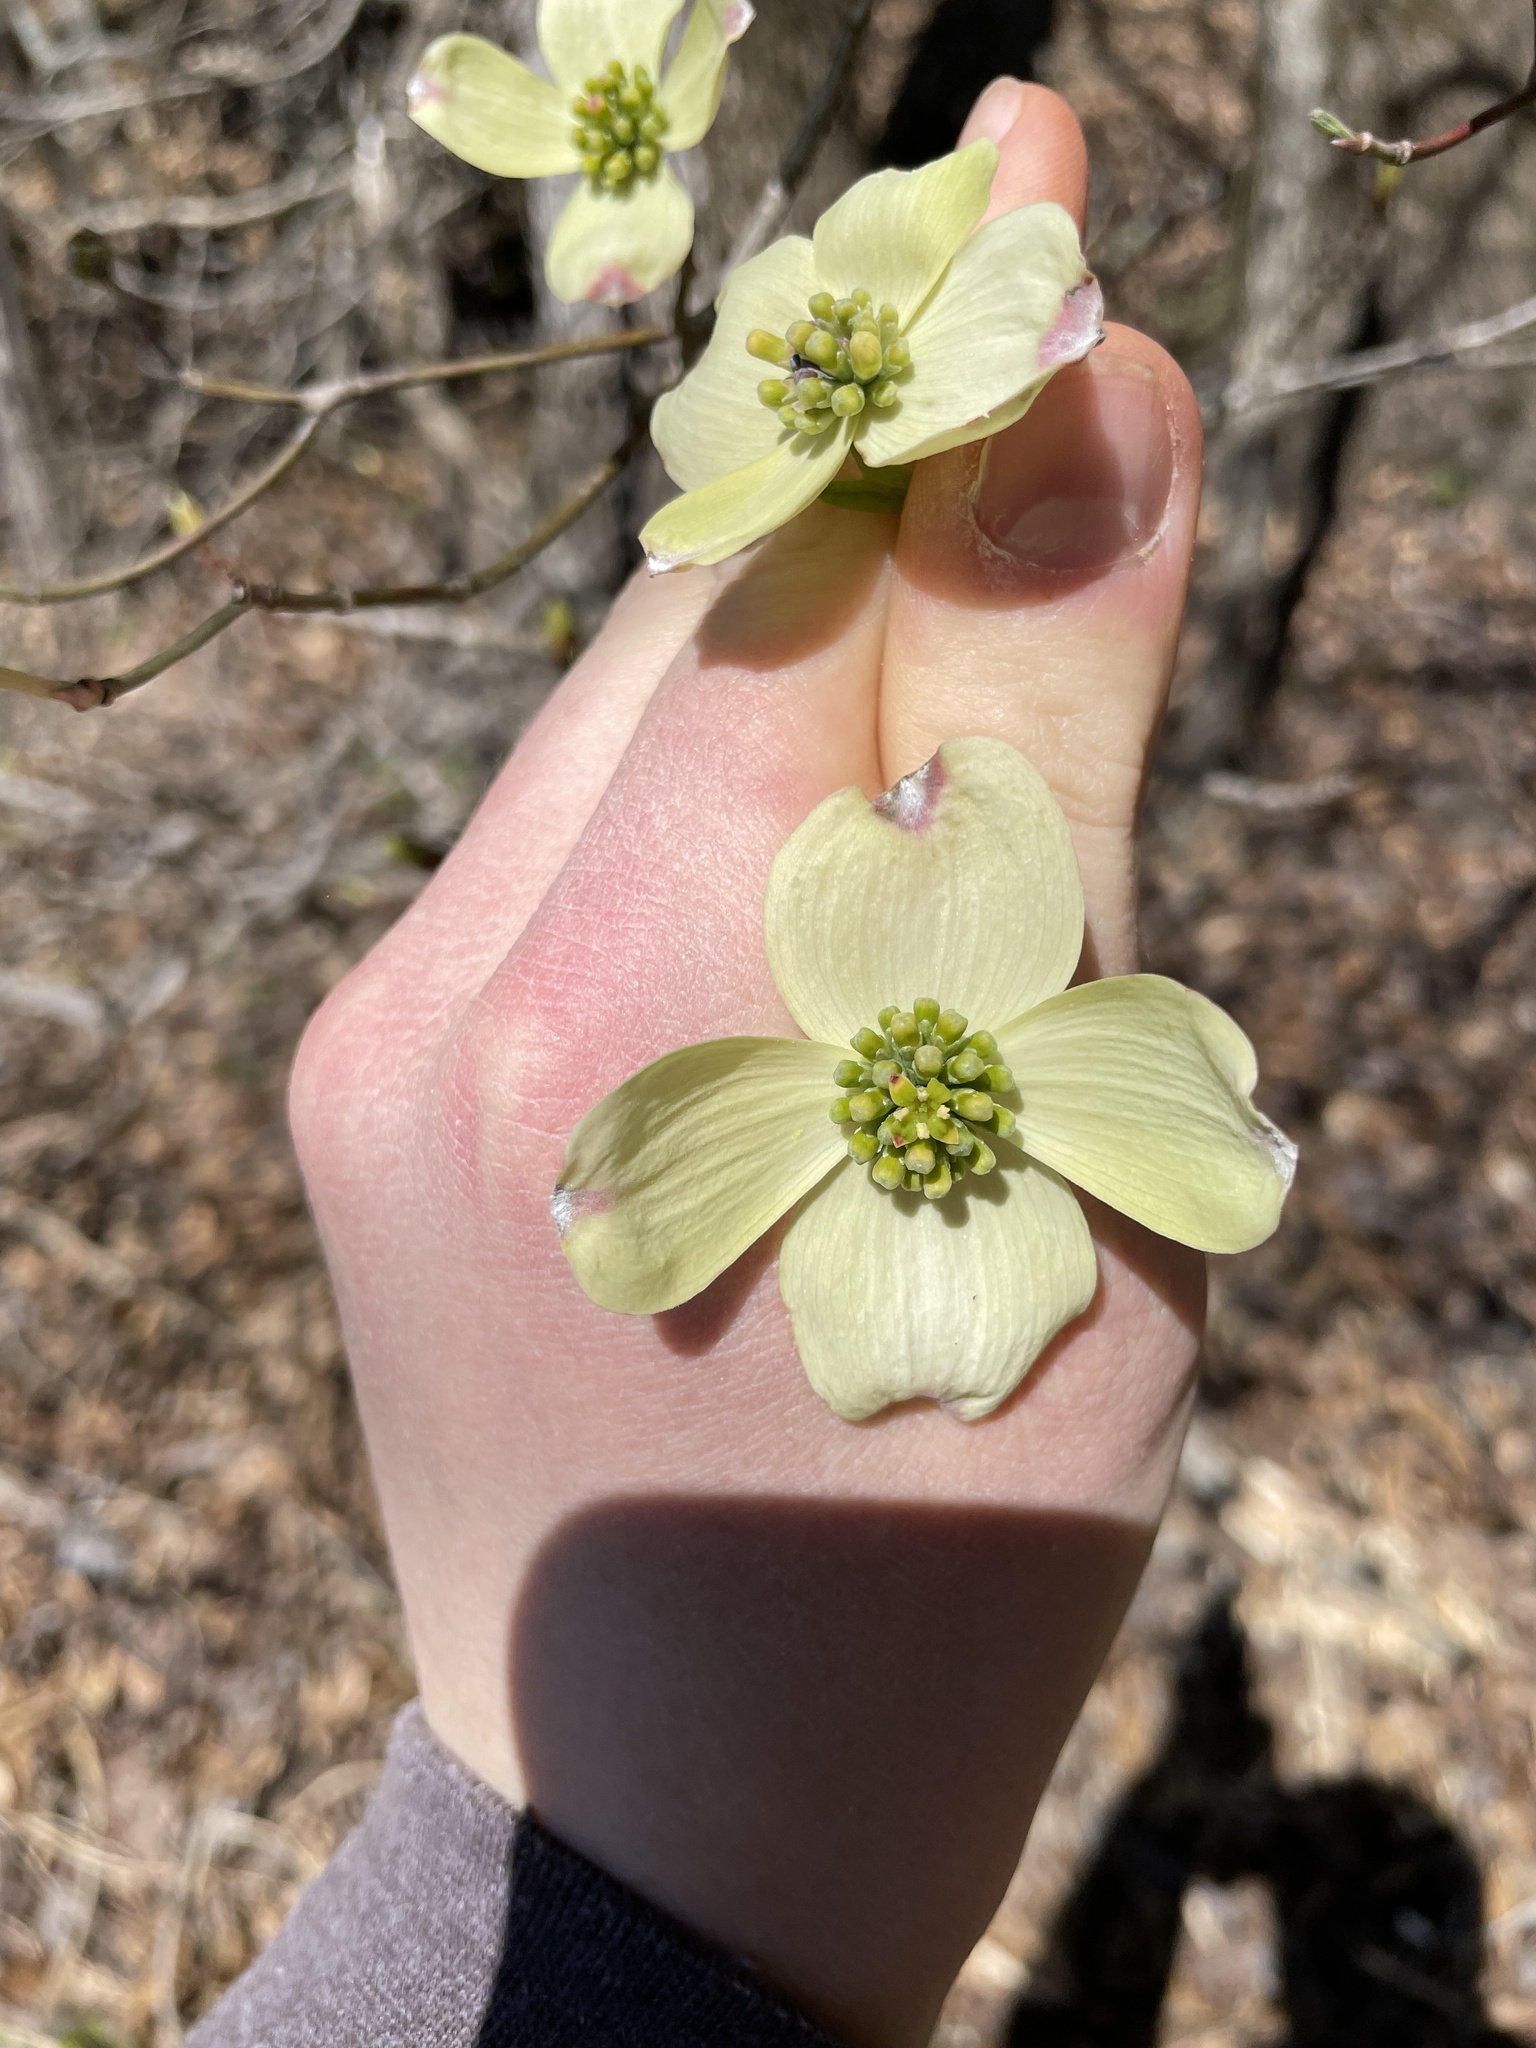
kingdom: Plantae
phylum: Tracheophyta
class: Magnoliopsida
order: Cornales
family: Cornaceae
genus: Cornus
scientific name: Cornus florida
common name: Flowering dogwood
